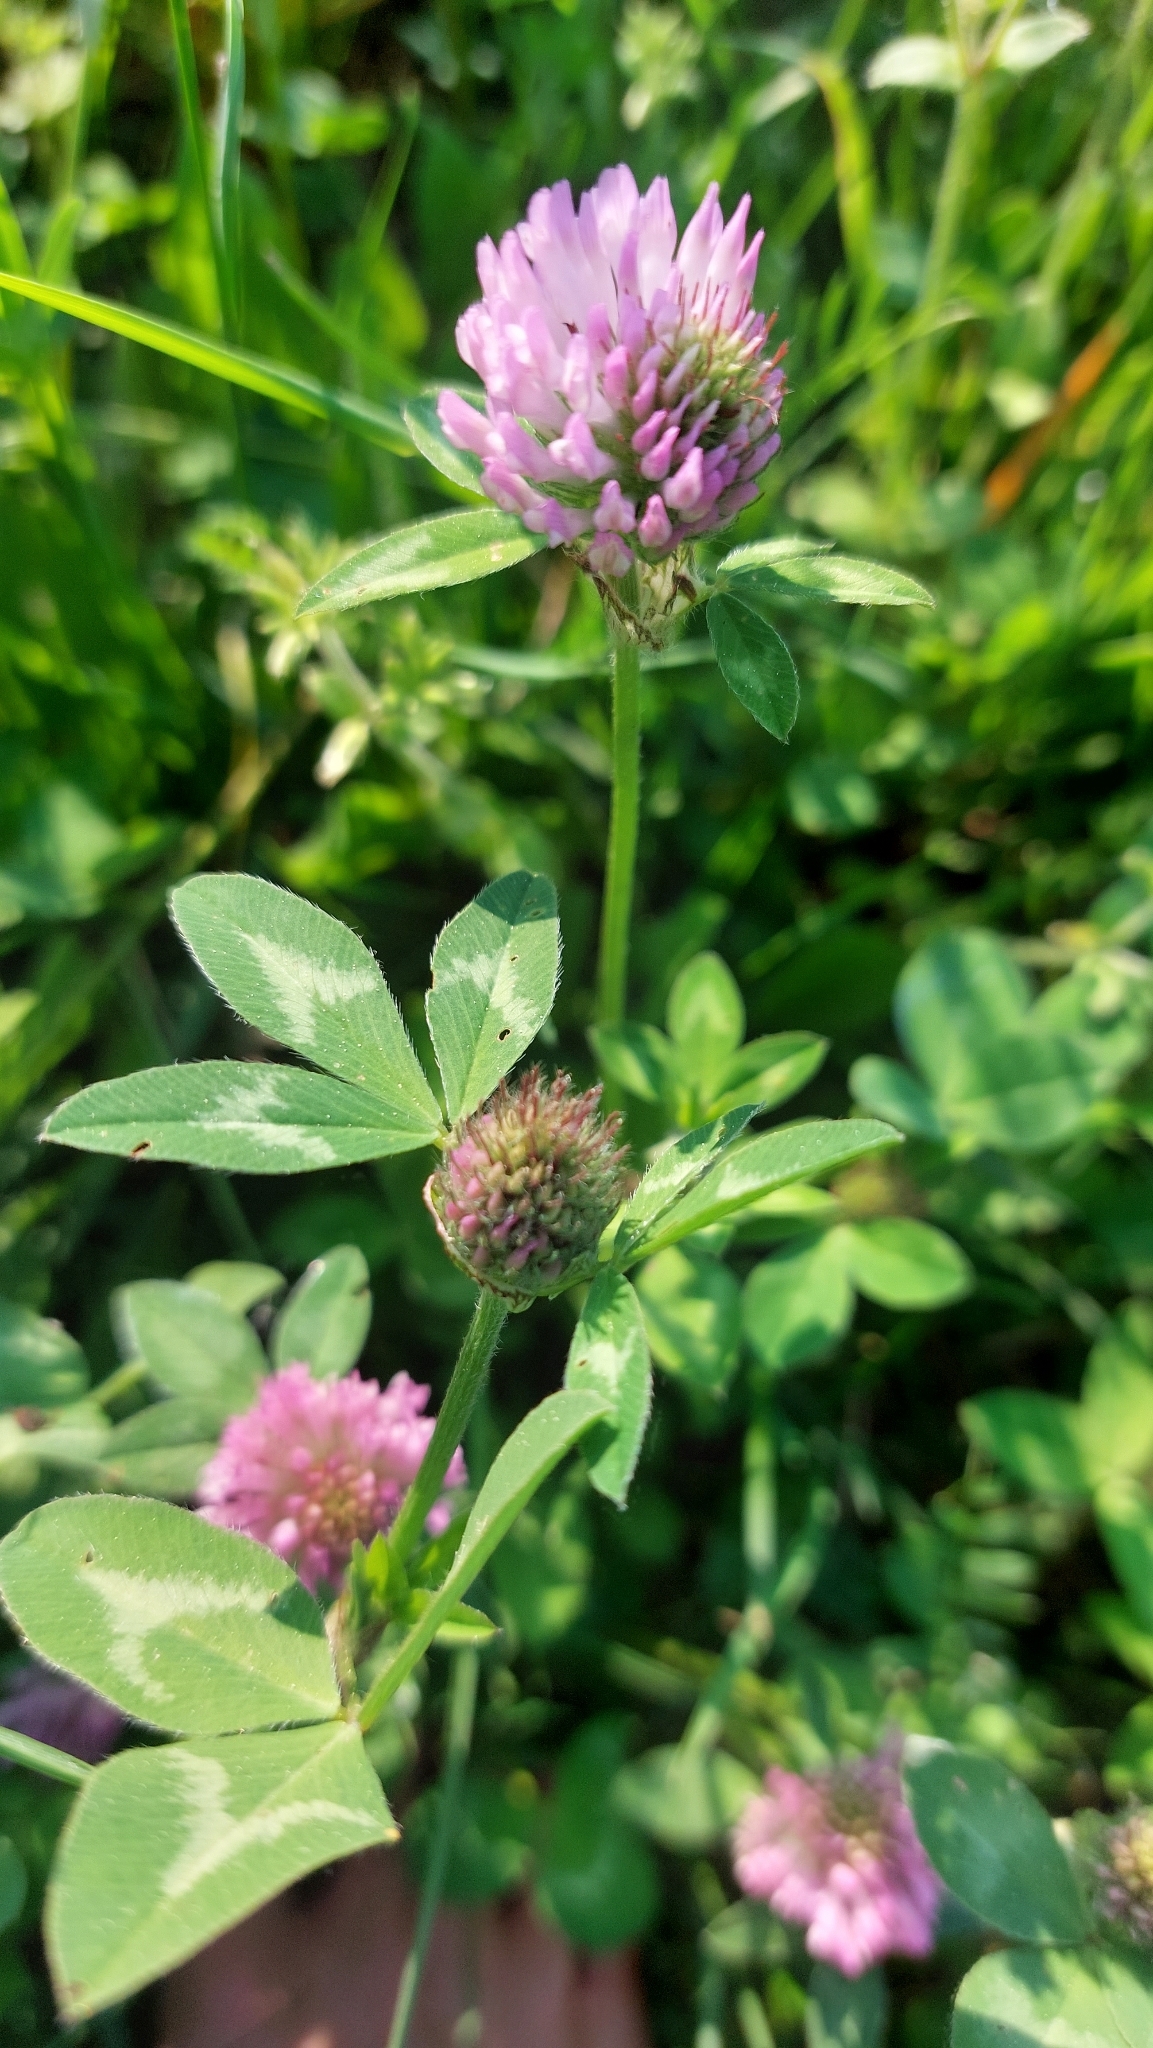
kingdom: Plantae
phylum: Tracheophyta
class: Magnoliopsida
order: Fabales
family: Fabaceae
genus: Trifolium
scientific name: Trifolium pratense
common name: Red clover
